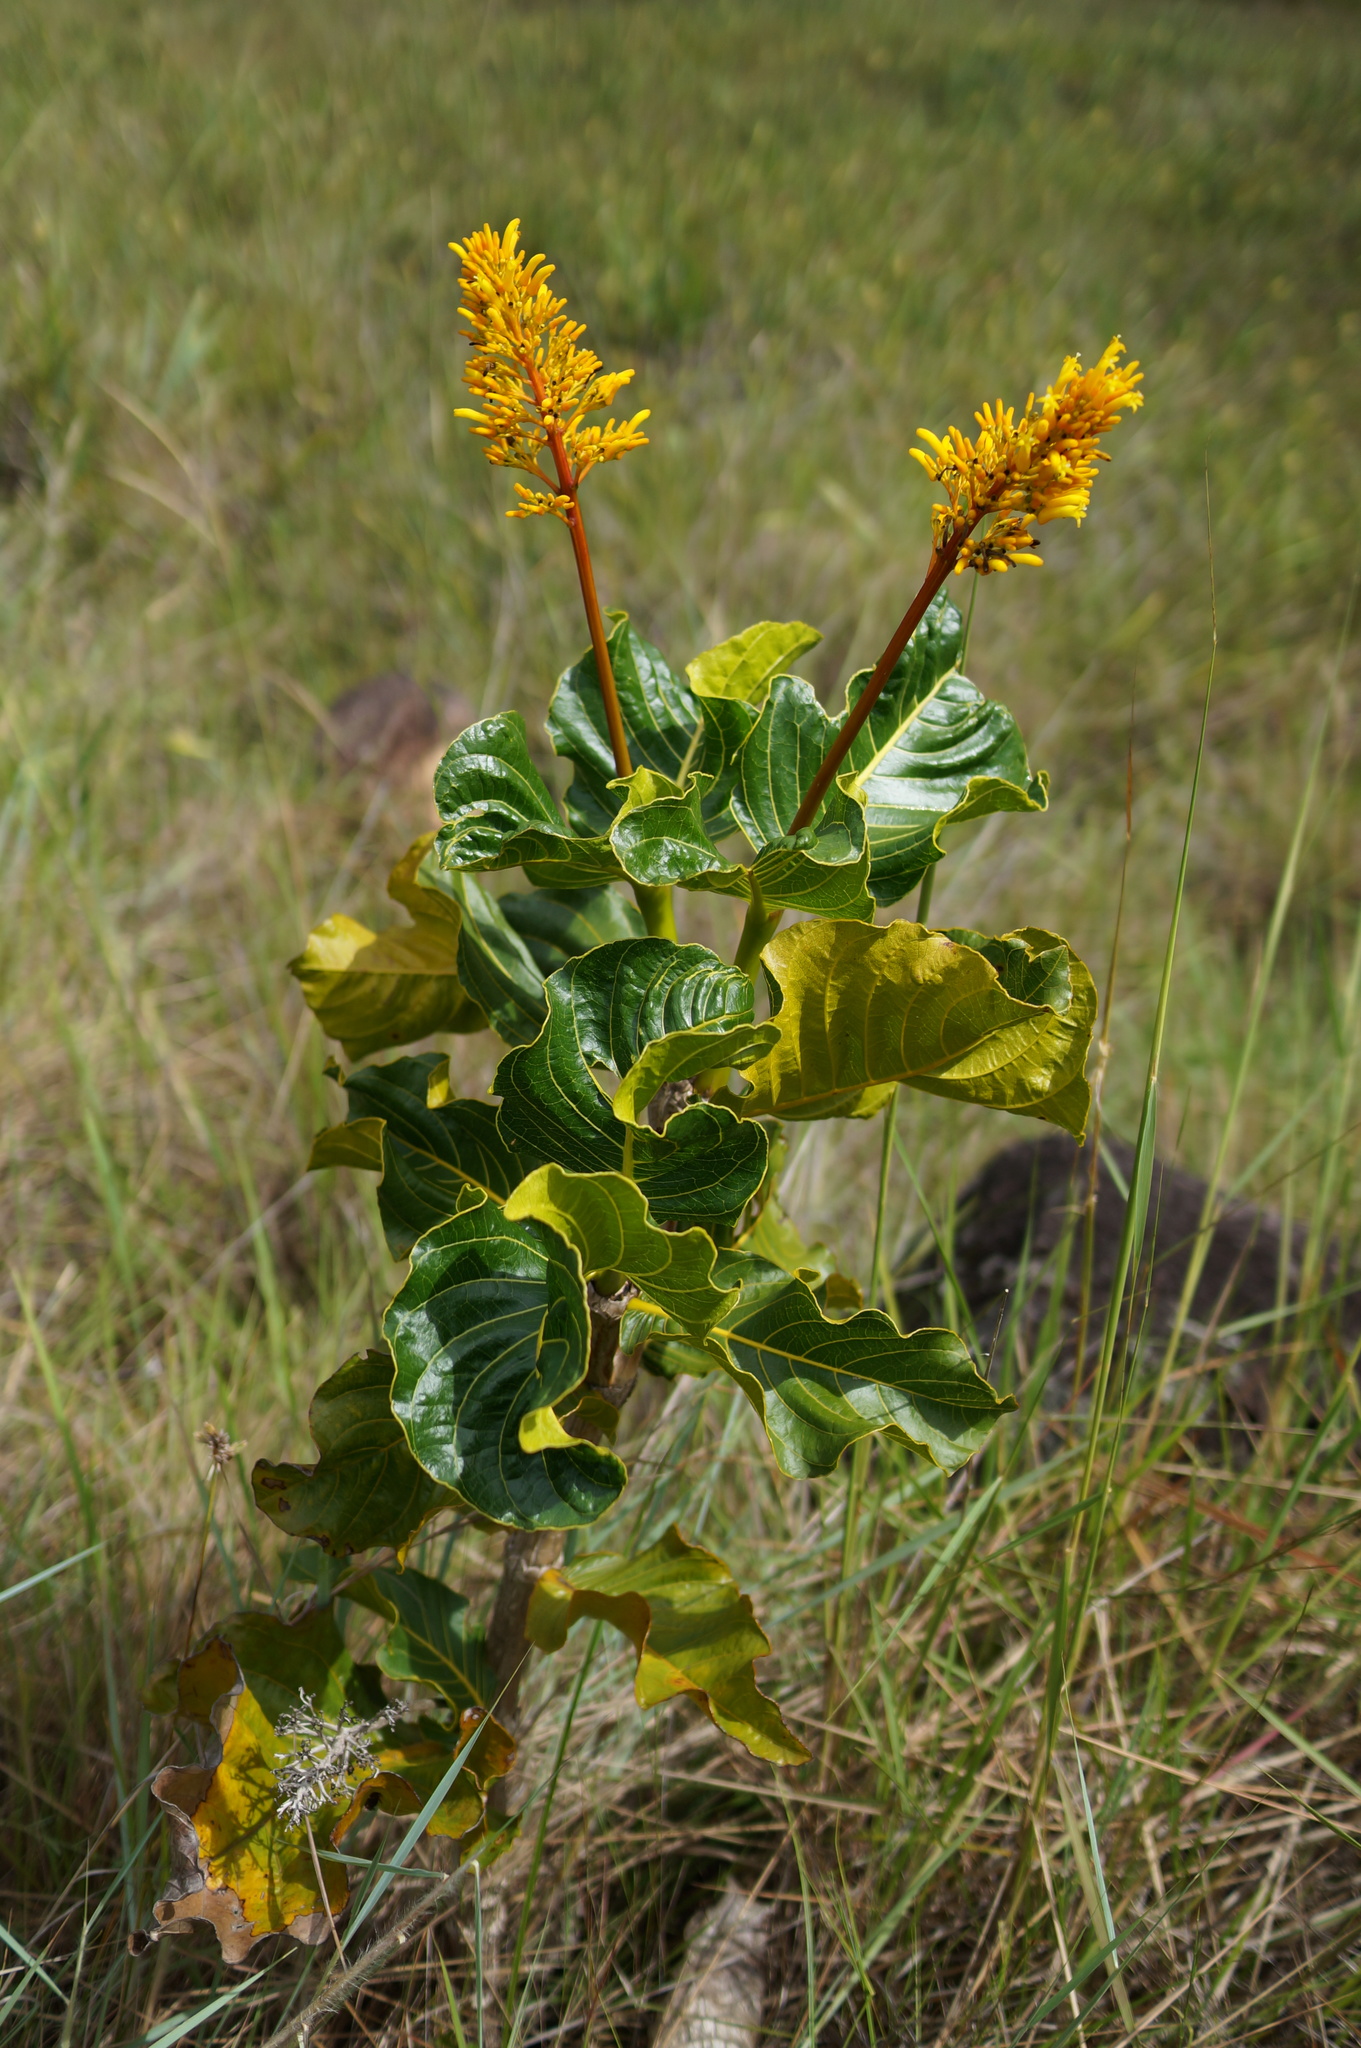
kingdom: Plantae
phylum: Tracheophyta
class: Magnoliopsida
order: Gentianales
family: Rubiaceae
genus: Palicourea
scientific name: Palicourea rigida
